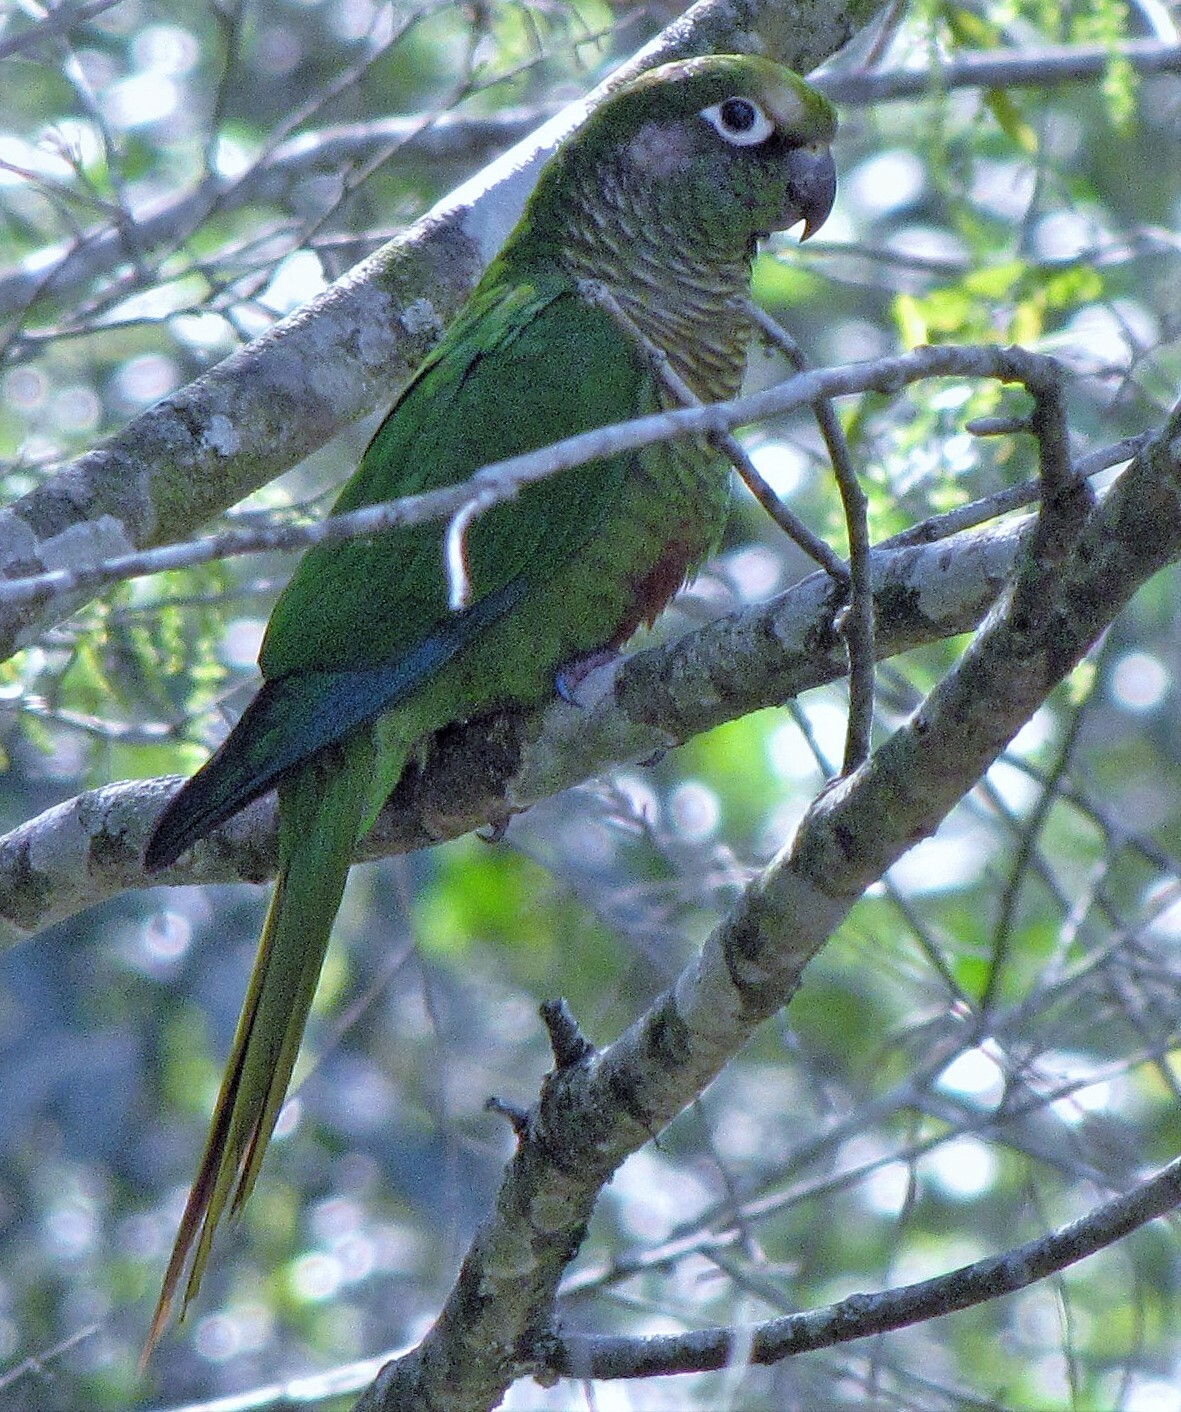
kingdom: Animalia
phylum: Chordata
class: Aves
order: Psittaciformes
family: Psittacidae
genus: Pyrrhura
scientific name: Pyrrhura frontalis
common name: Maroon-bellied parakeet
